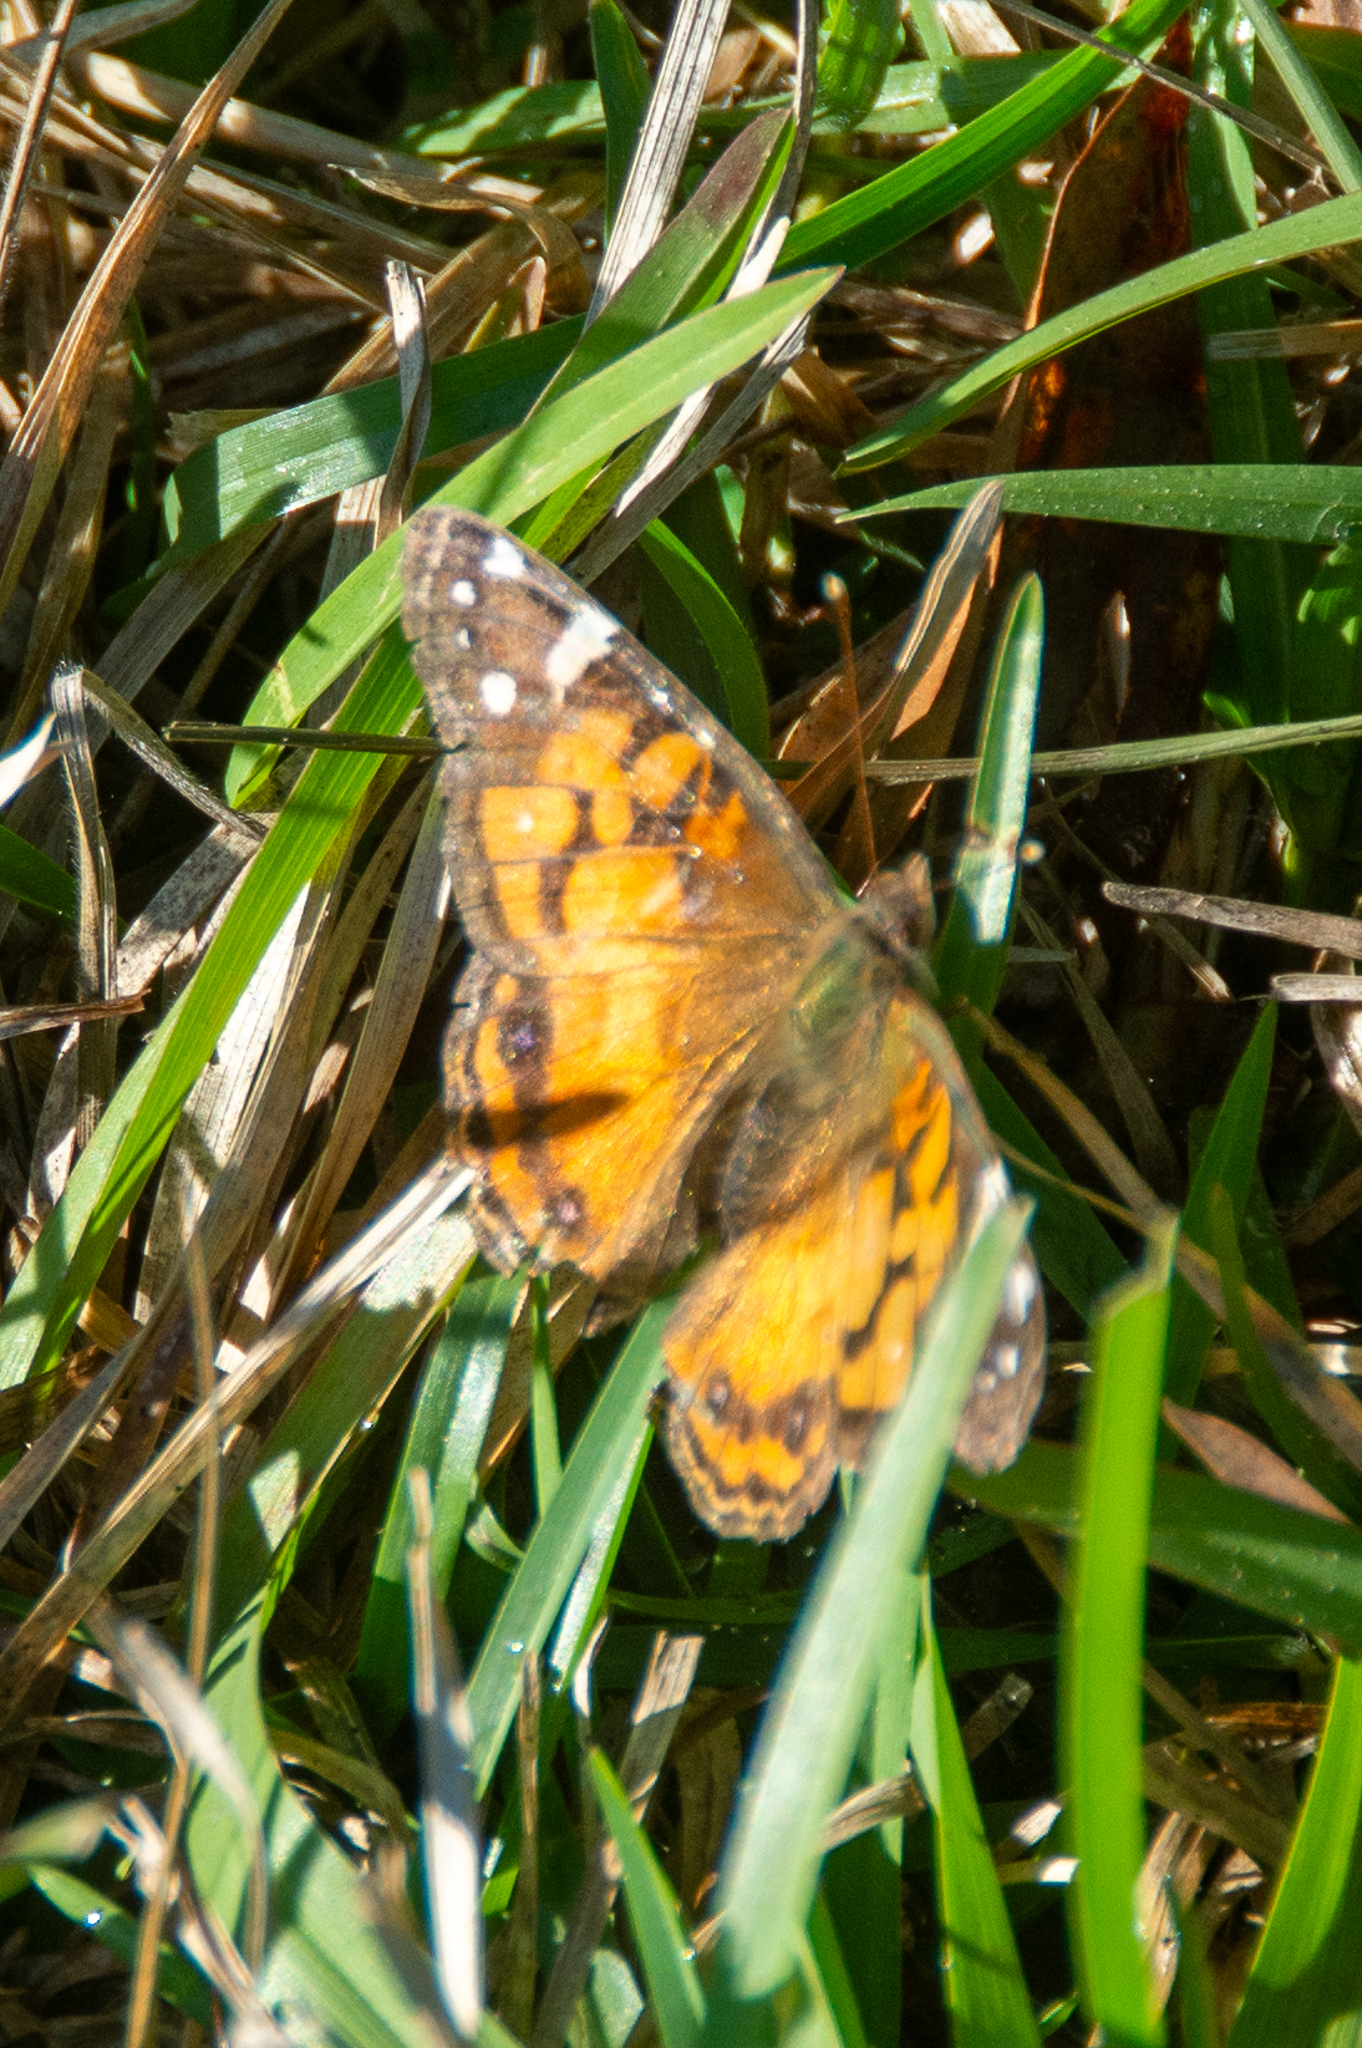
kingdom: Animalia
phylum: Arthropoda
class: Insecta
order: Lepidoptera
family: Nymphalidae
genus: Vanessa
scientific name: Vanessa virginiensis
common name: American lady
